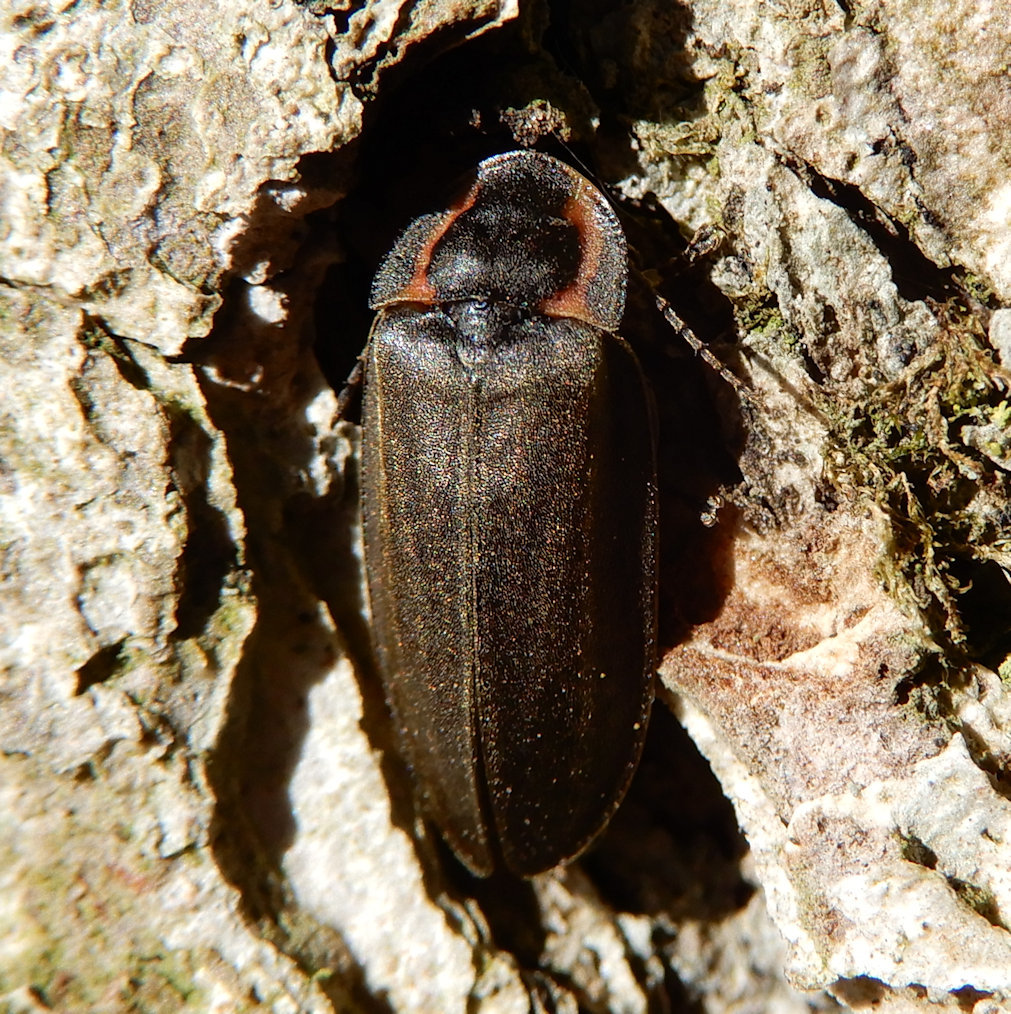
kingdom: Animalia
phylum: Arthropoda
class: Insecta
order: Coleoptera
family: Lampyridae
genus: Photinus
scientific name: Photinus corrusca
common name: Winter firefly
